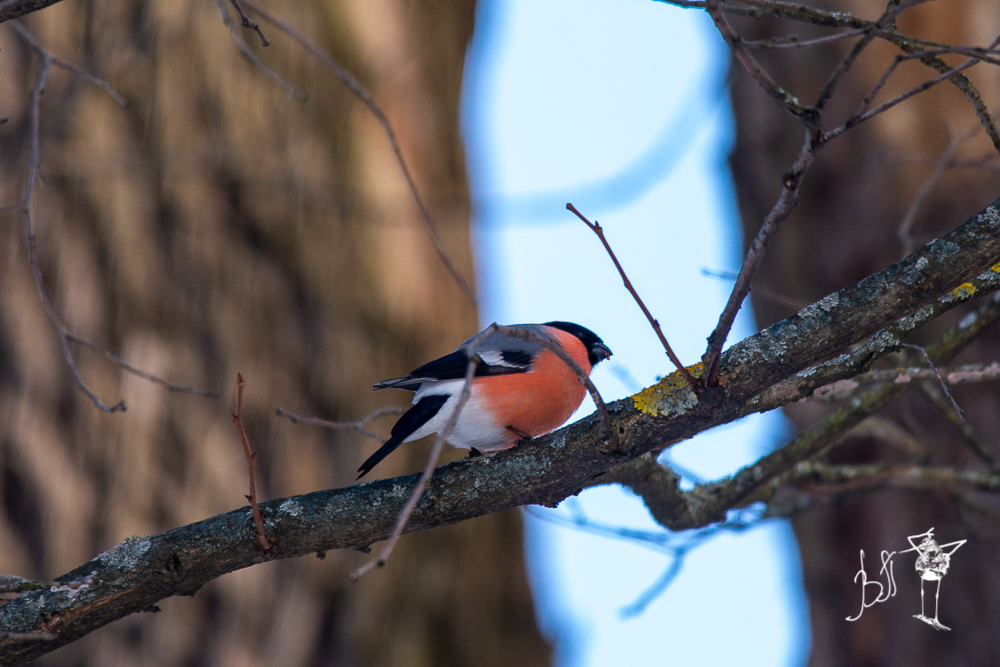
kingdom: Animalia
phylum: Chordata
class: Aves
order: Passeriformes
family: Fringillidae
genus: Pyrrhula
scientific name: Pyrrhula pyrrhula
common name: Eurasian bullfinch
